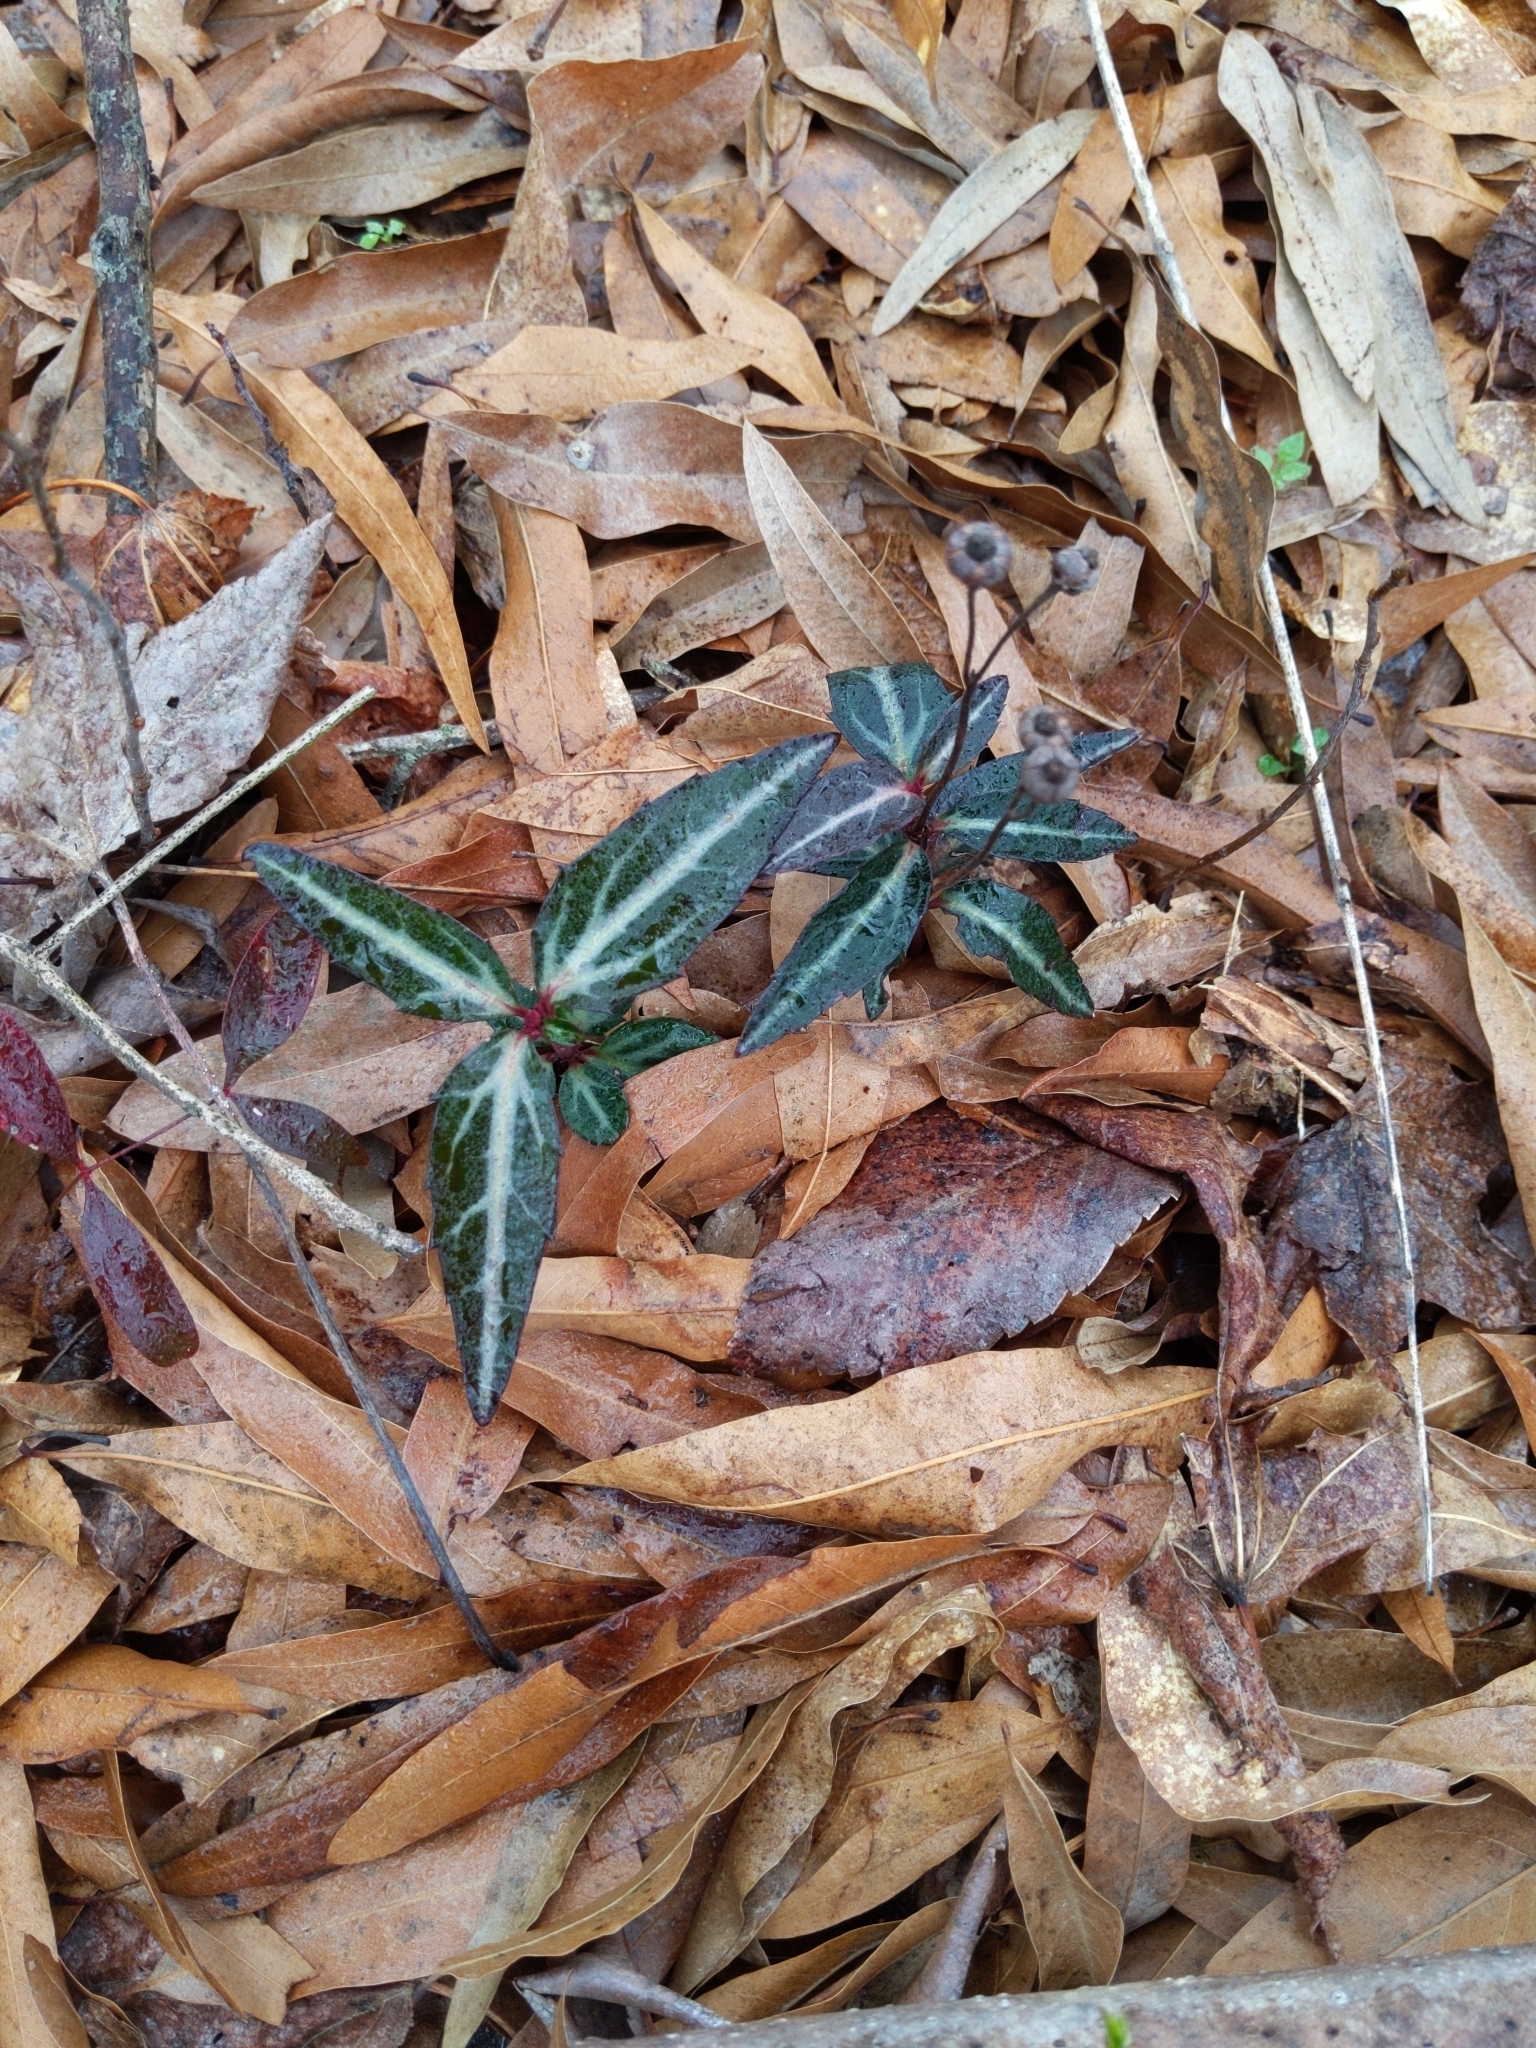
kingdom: Plantae
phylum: Tracheophyta
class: Magnoliopsida
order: Ericales
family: Ericaceae
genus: Chimaphila
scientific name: Chimaphila maculata
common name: Spotted pipsissewa
